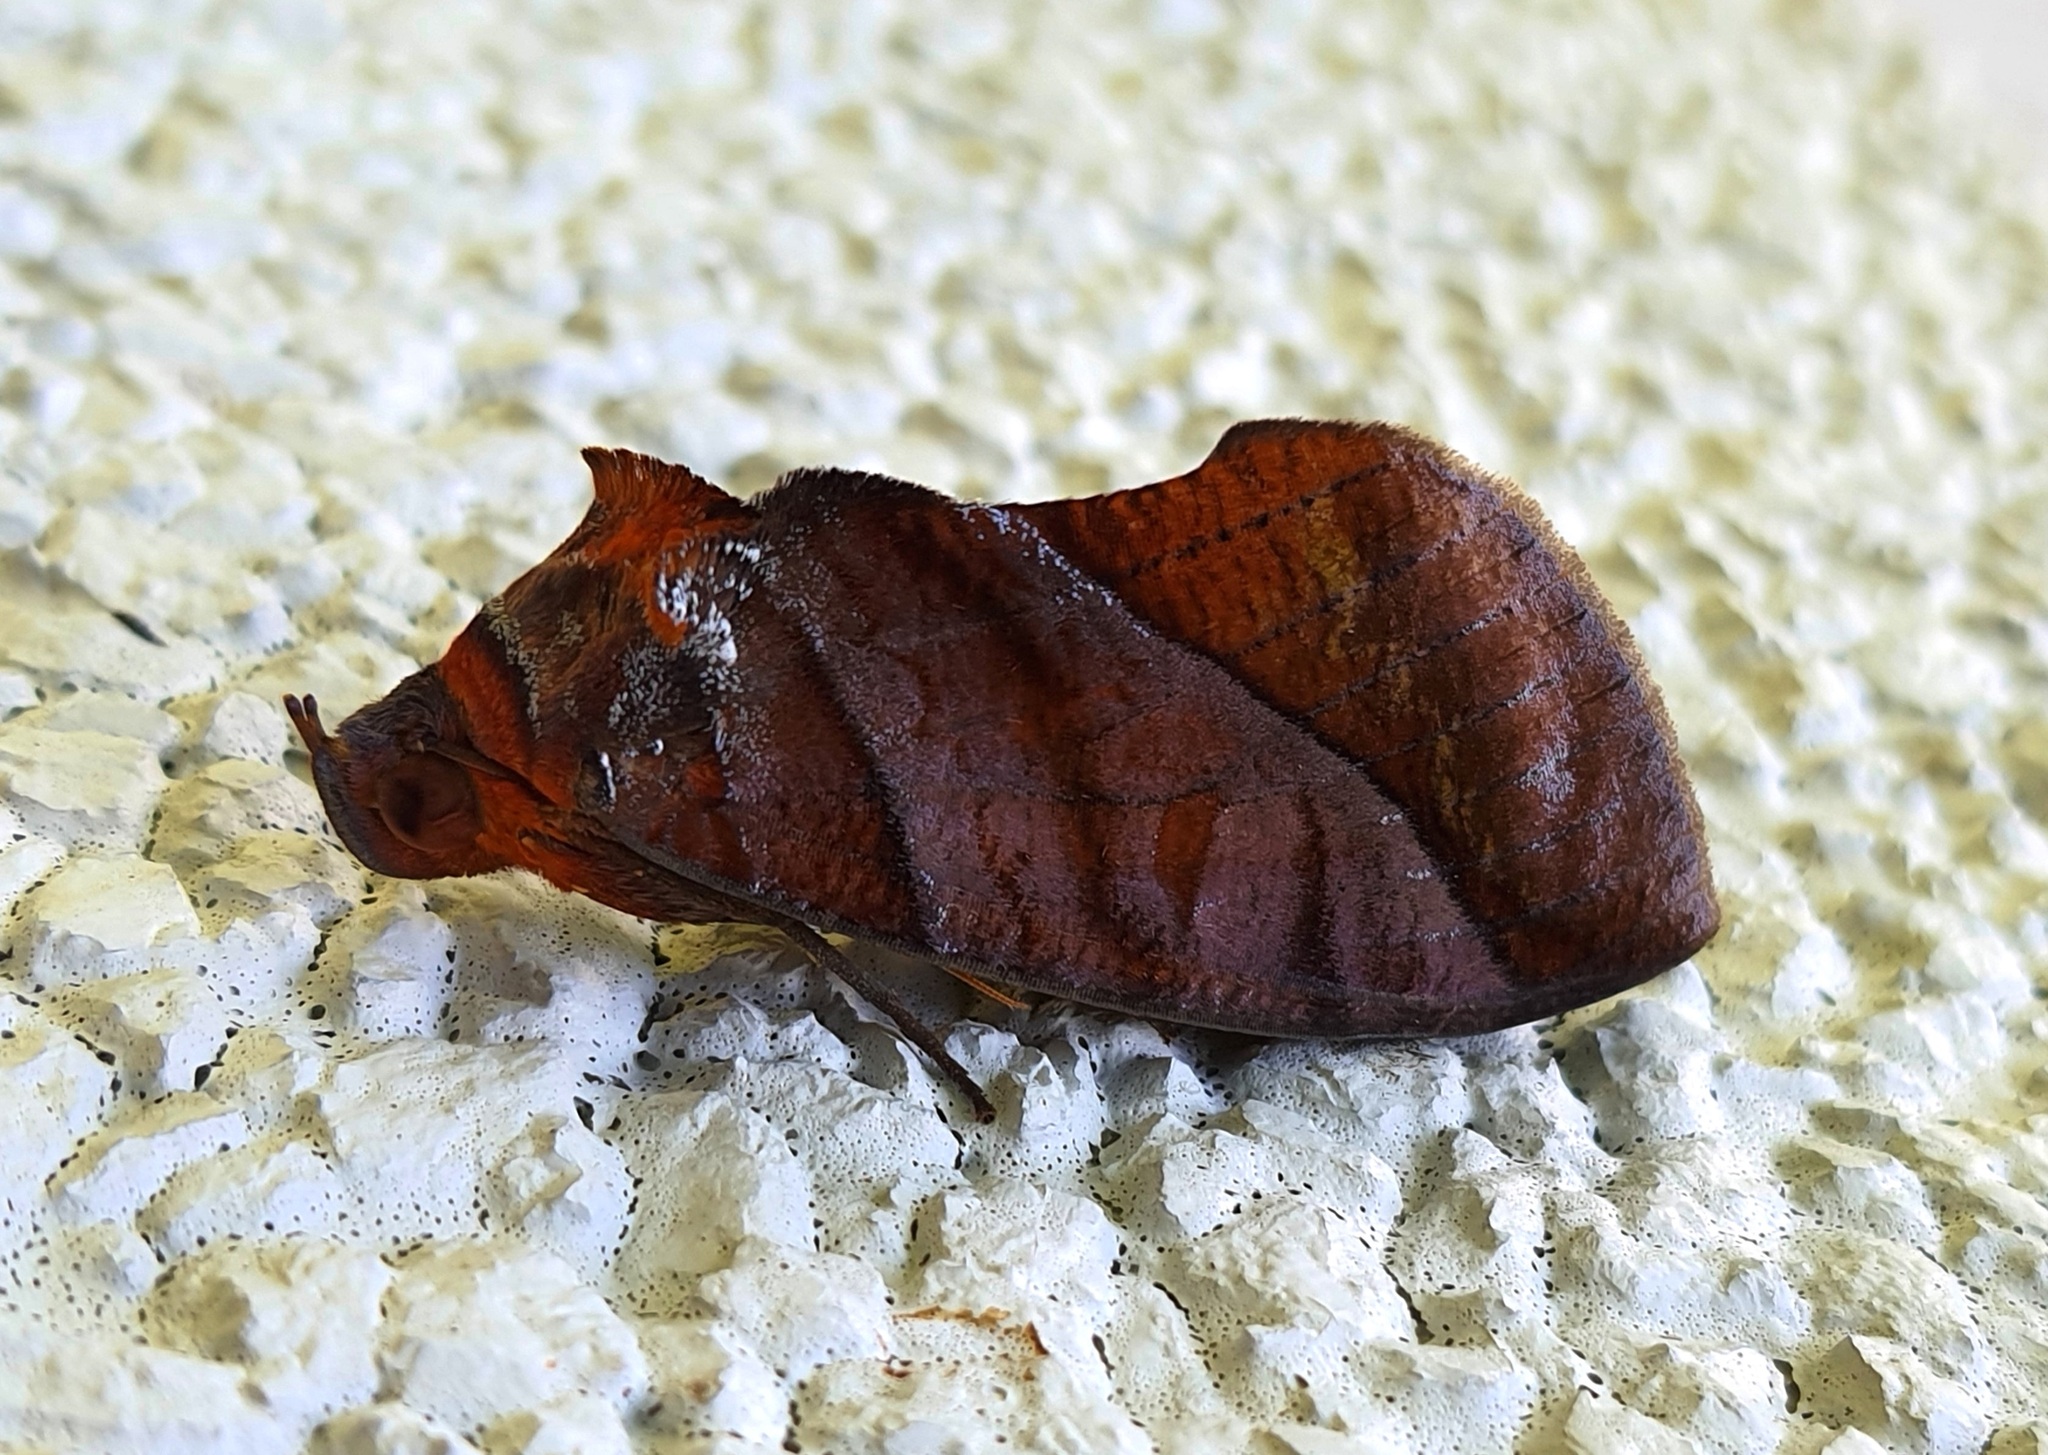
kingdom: Animalia
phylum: Arthropoda
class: Insecta
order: Lepidoptera
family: Erebidae
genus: Eudocima
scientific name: Eudocima homaena
